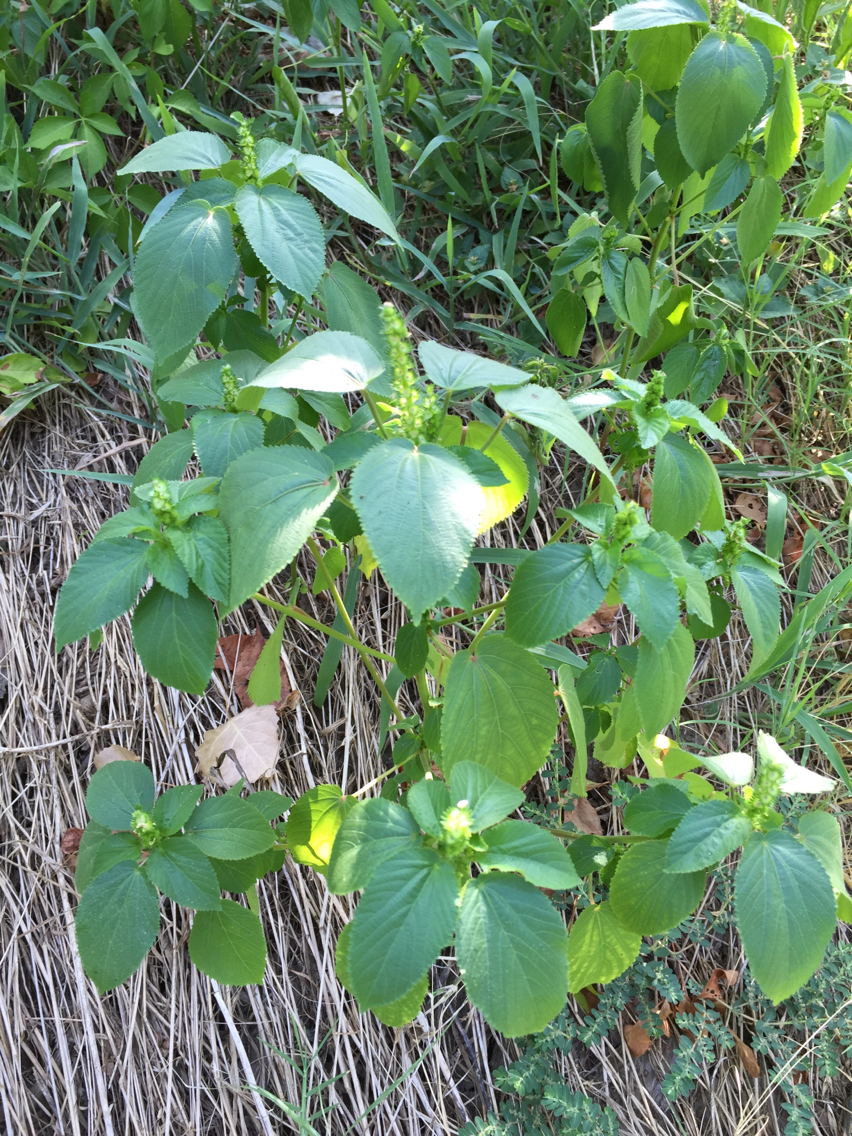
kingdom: Plantae
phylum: Tracheophyta
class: Magnoliopsida
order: Malpighiales
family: Euphorbiaceae
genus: Acalypha
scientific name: Acalypha ostryifolia
